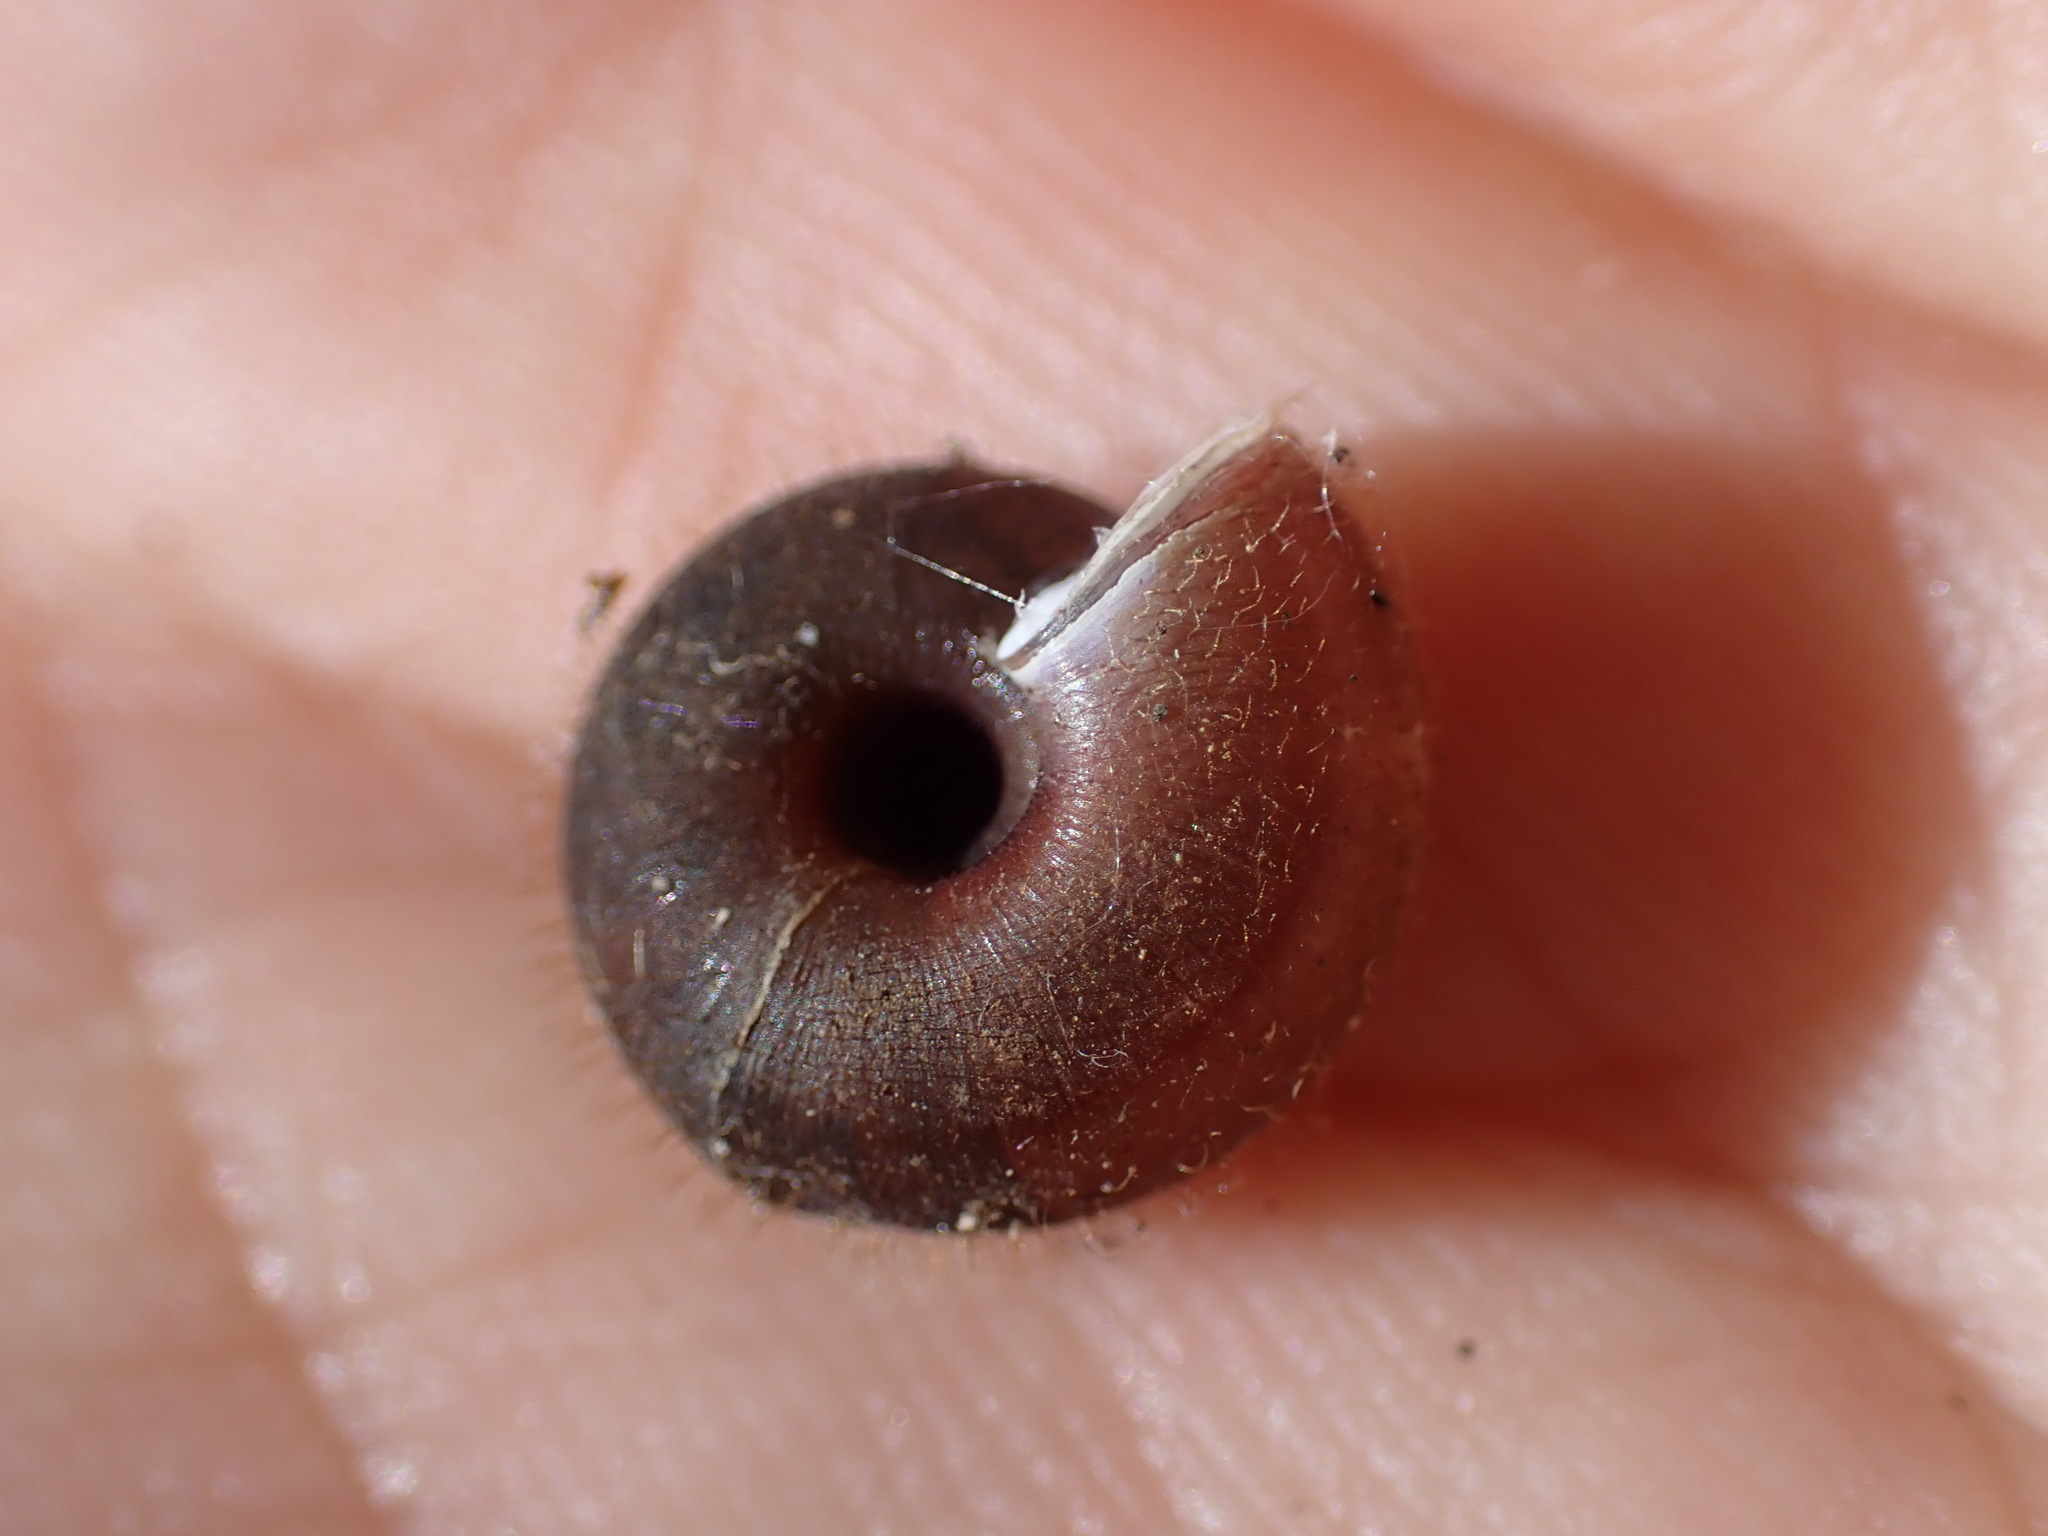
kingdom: Animalia
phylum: Mollusca
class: Gastropoda
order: Stylommatophora
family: Helicodontidae
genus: Helicodonta
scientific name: Helicodonta obvoluta
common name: Cheese snail
